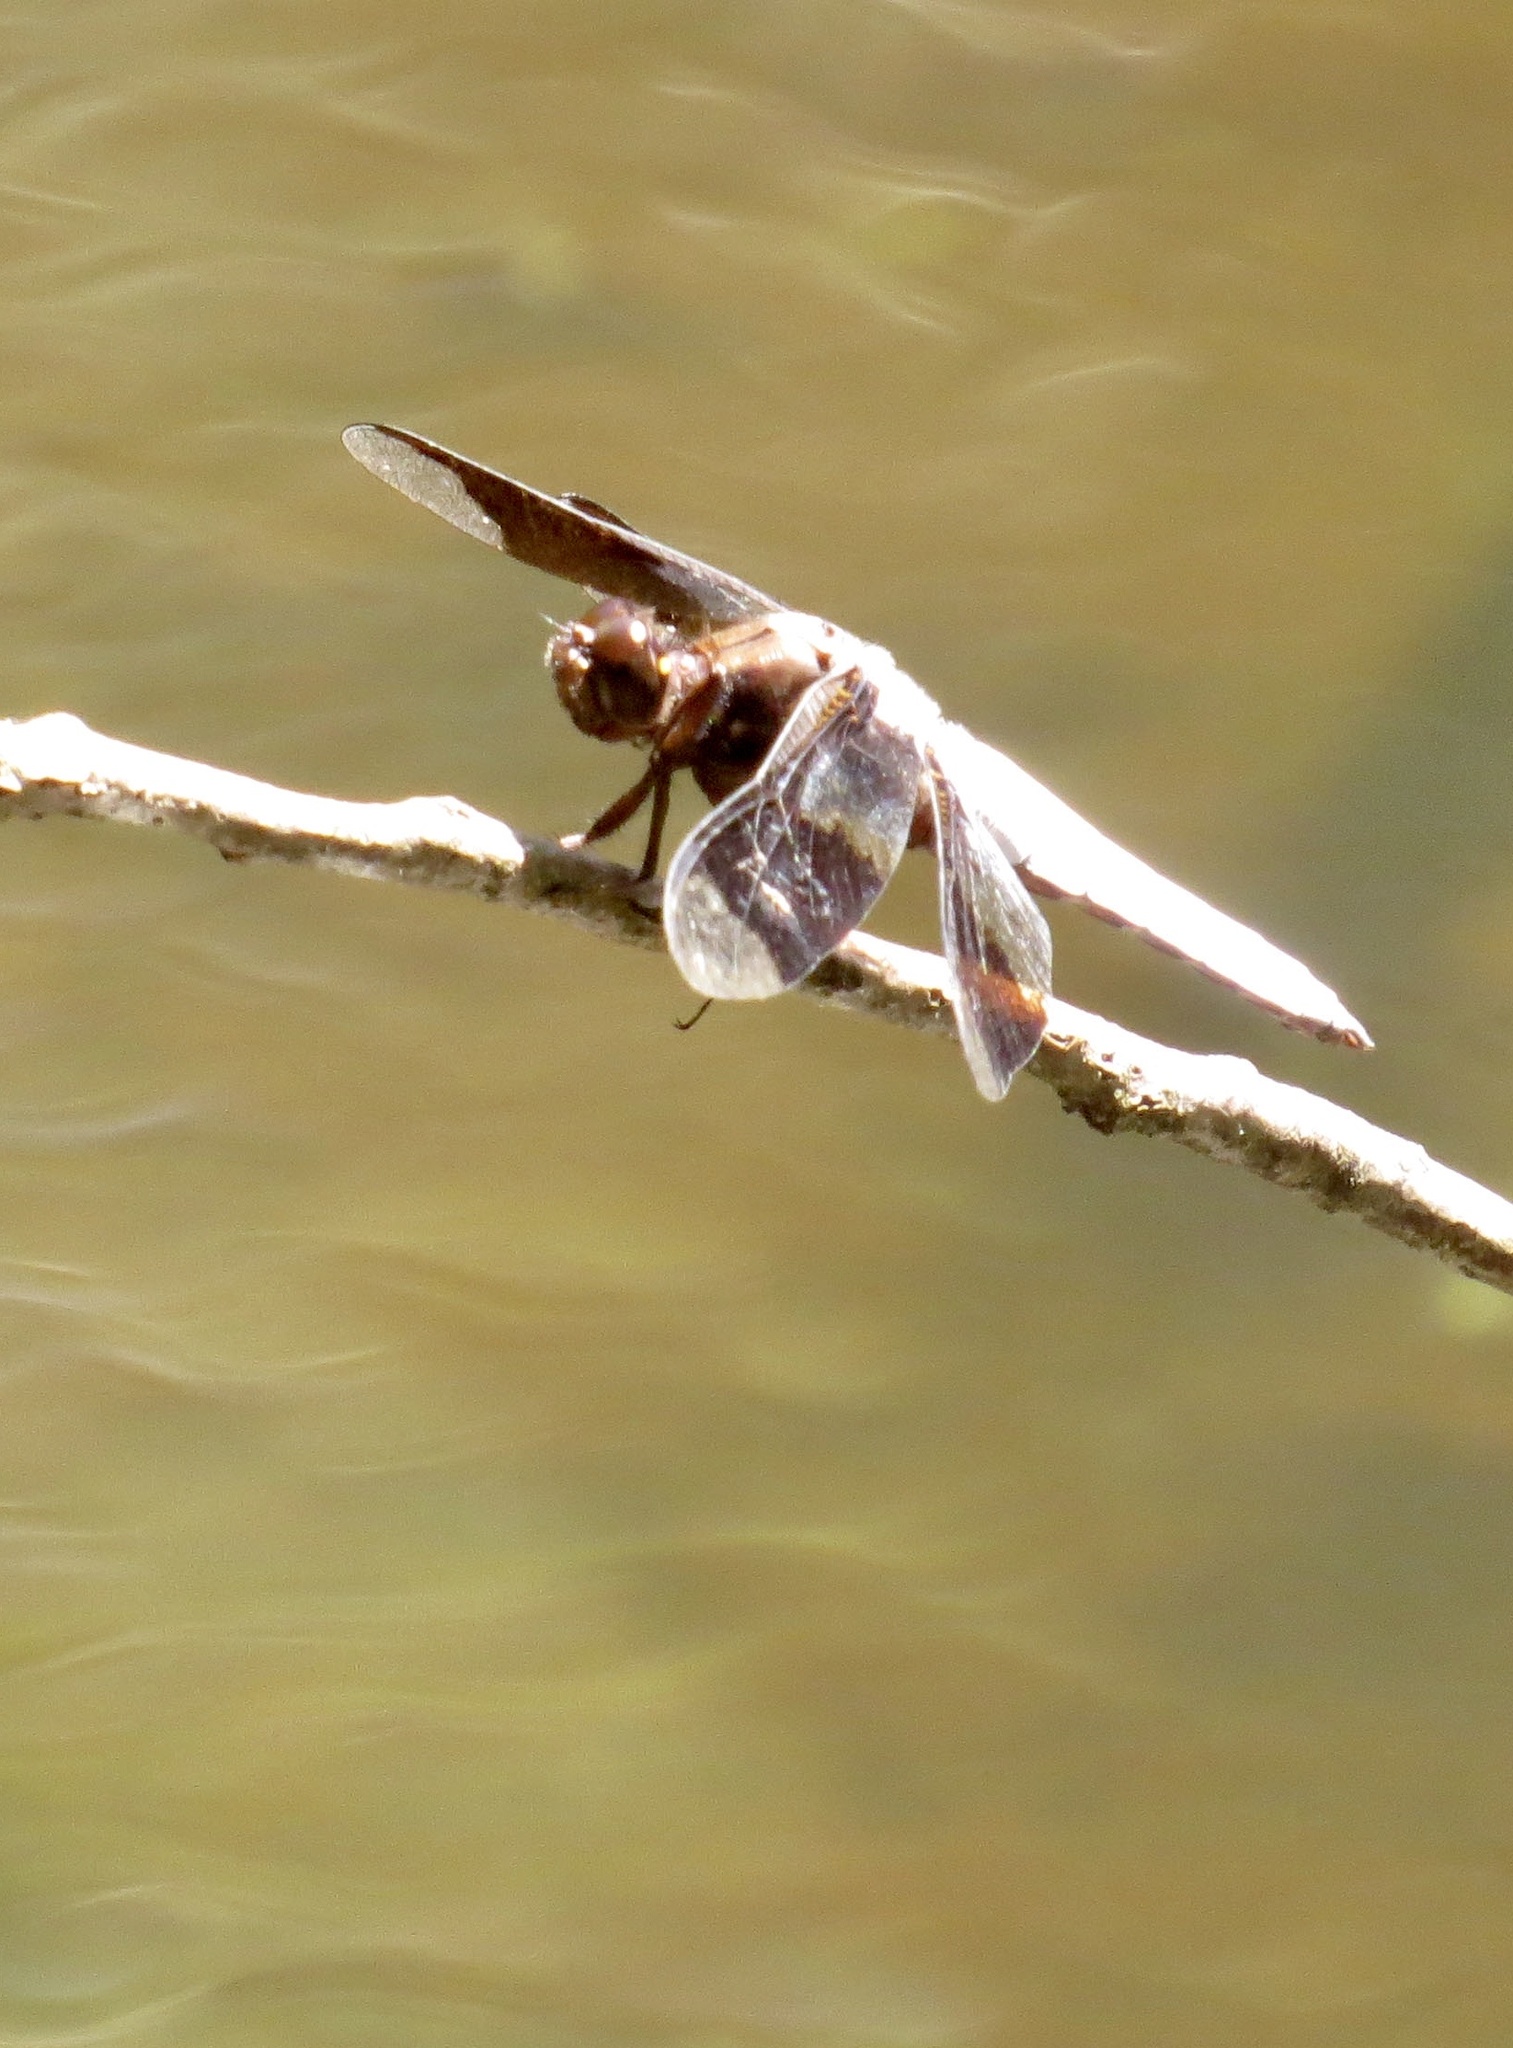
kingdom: Animalia
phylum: Arthropoda
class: Insecta
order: Odonata
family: Libellulidae
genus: Plathemis
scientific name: Plathemis lydia
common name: Common whitetail
